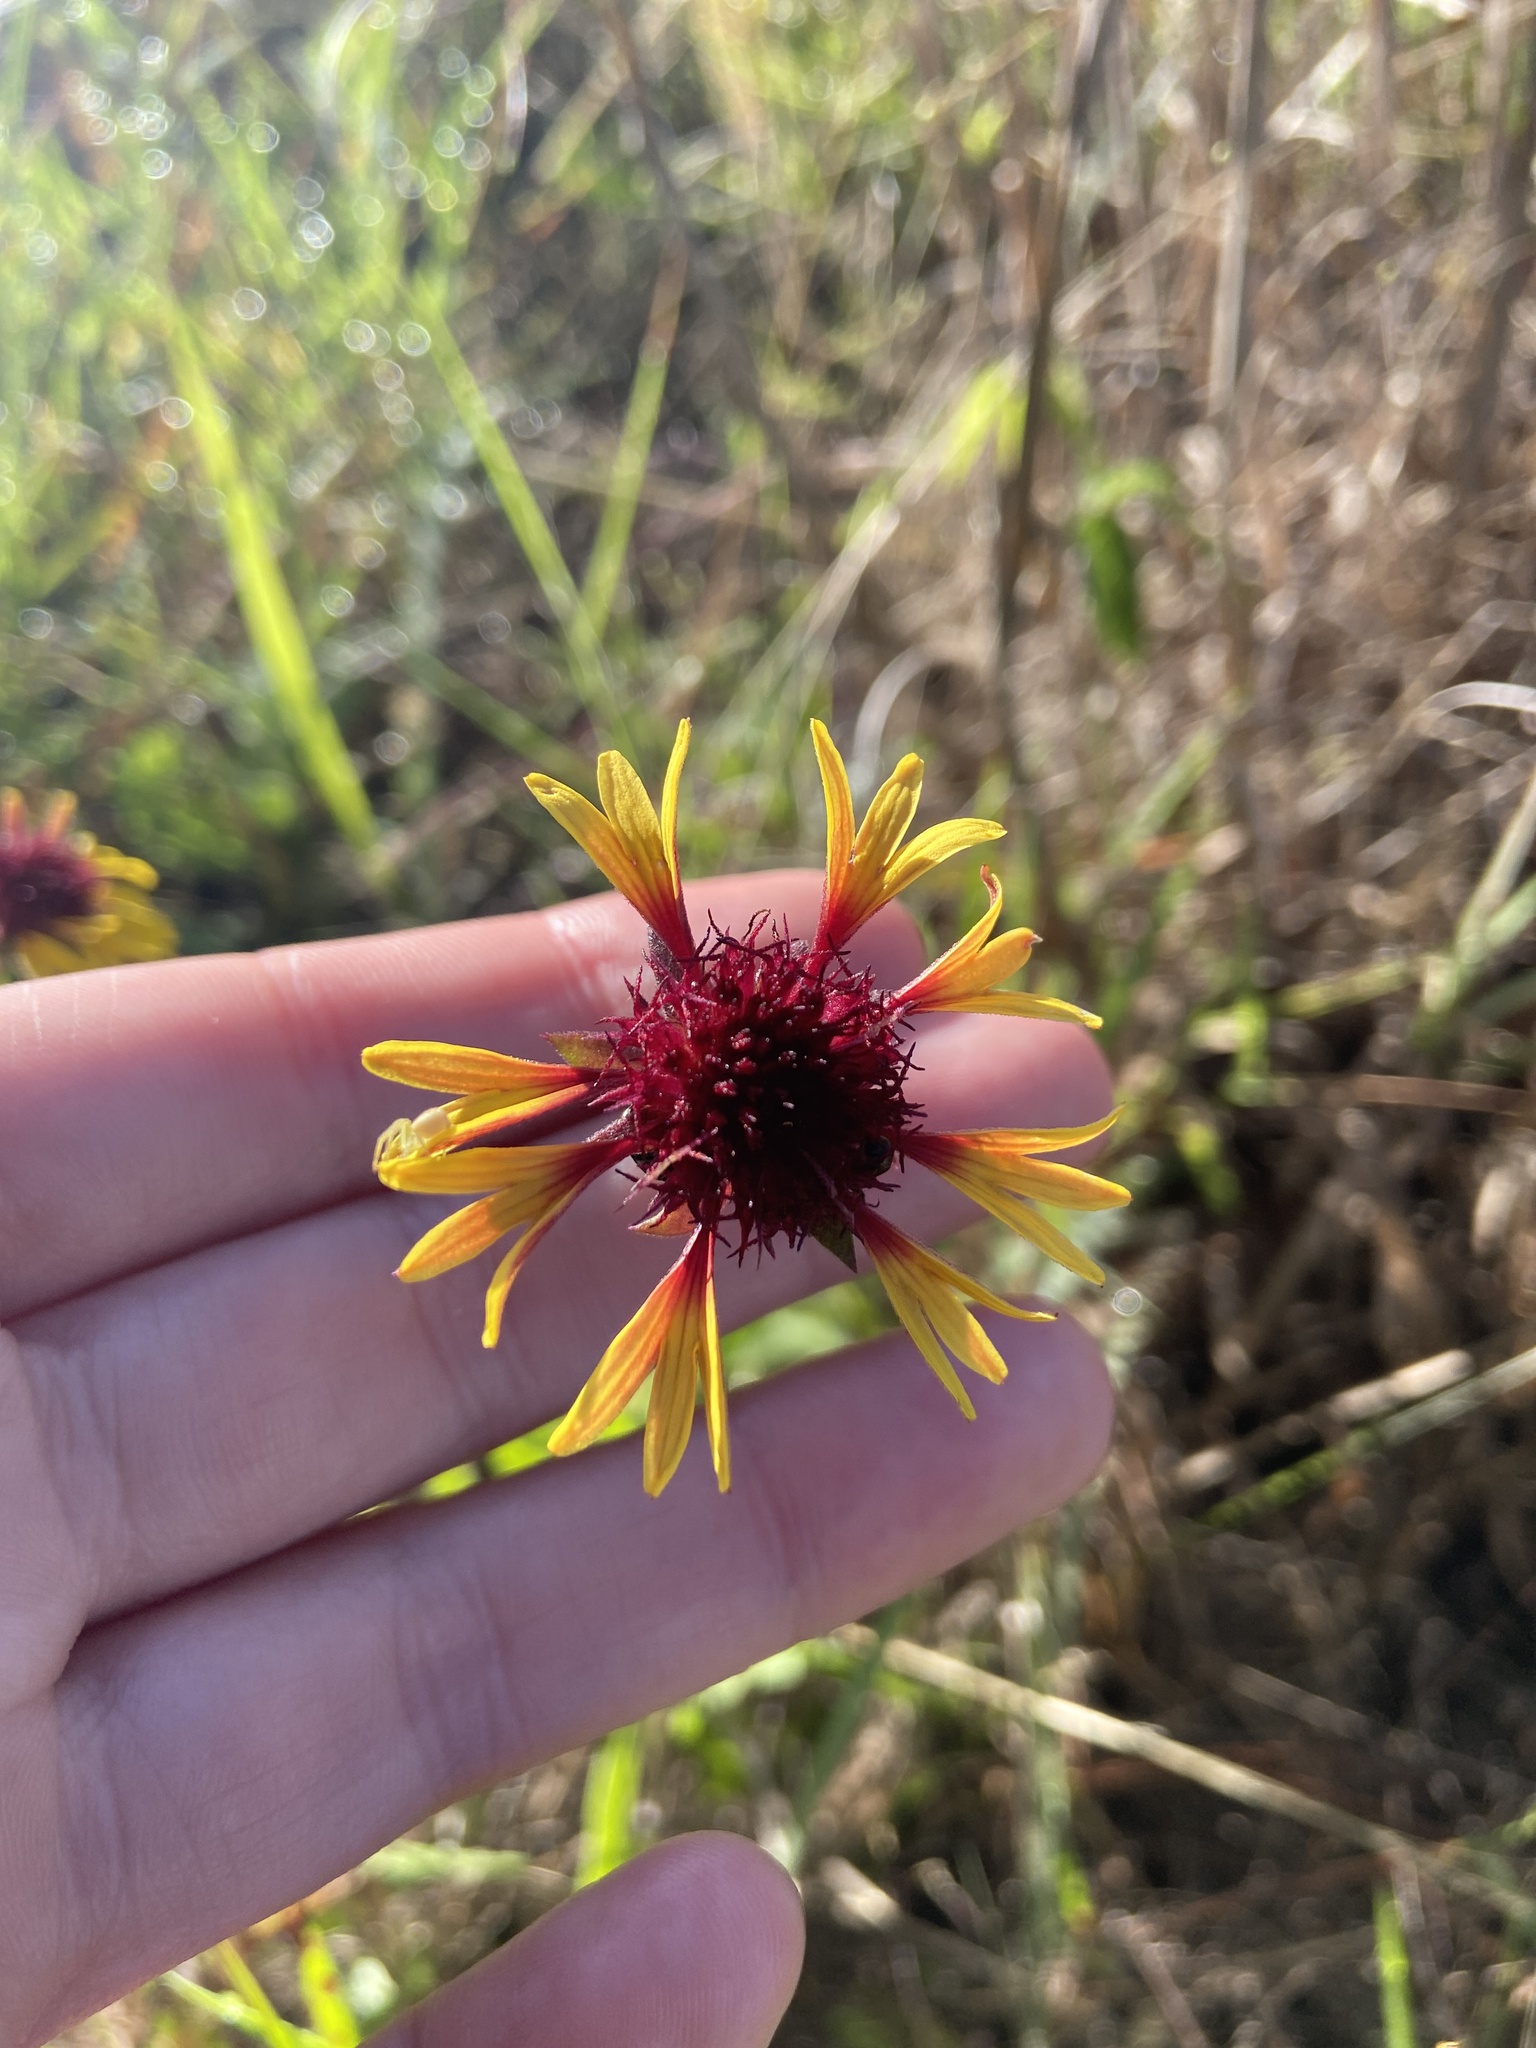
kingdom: Plantae
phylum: Tracheophyta
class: Magnoliopsida
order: Asterales
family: Asteraceae
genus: Gaillardia
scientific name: Gaillardia aestivalis
